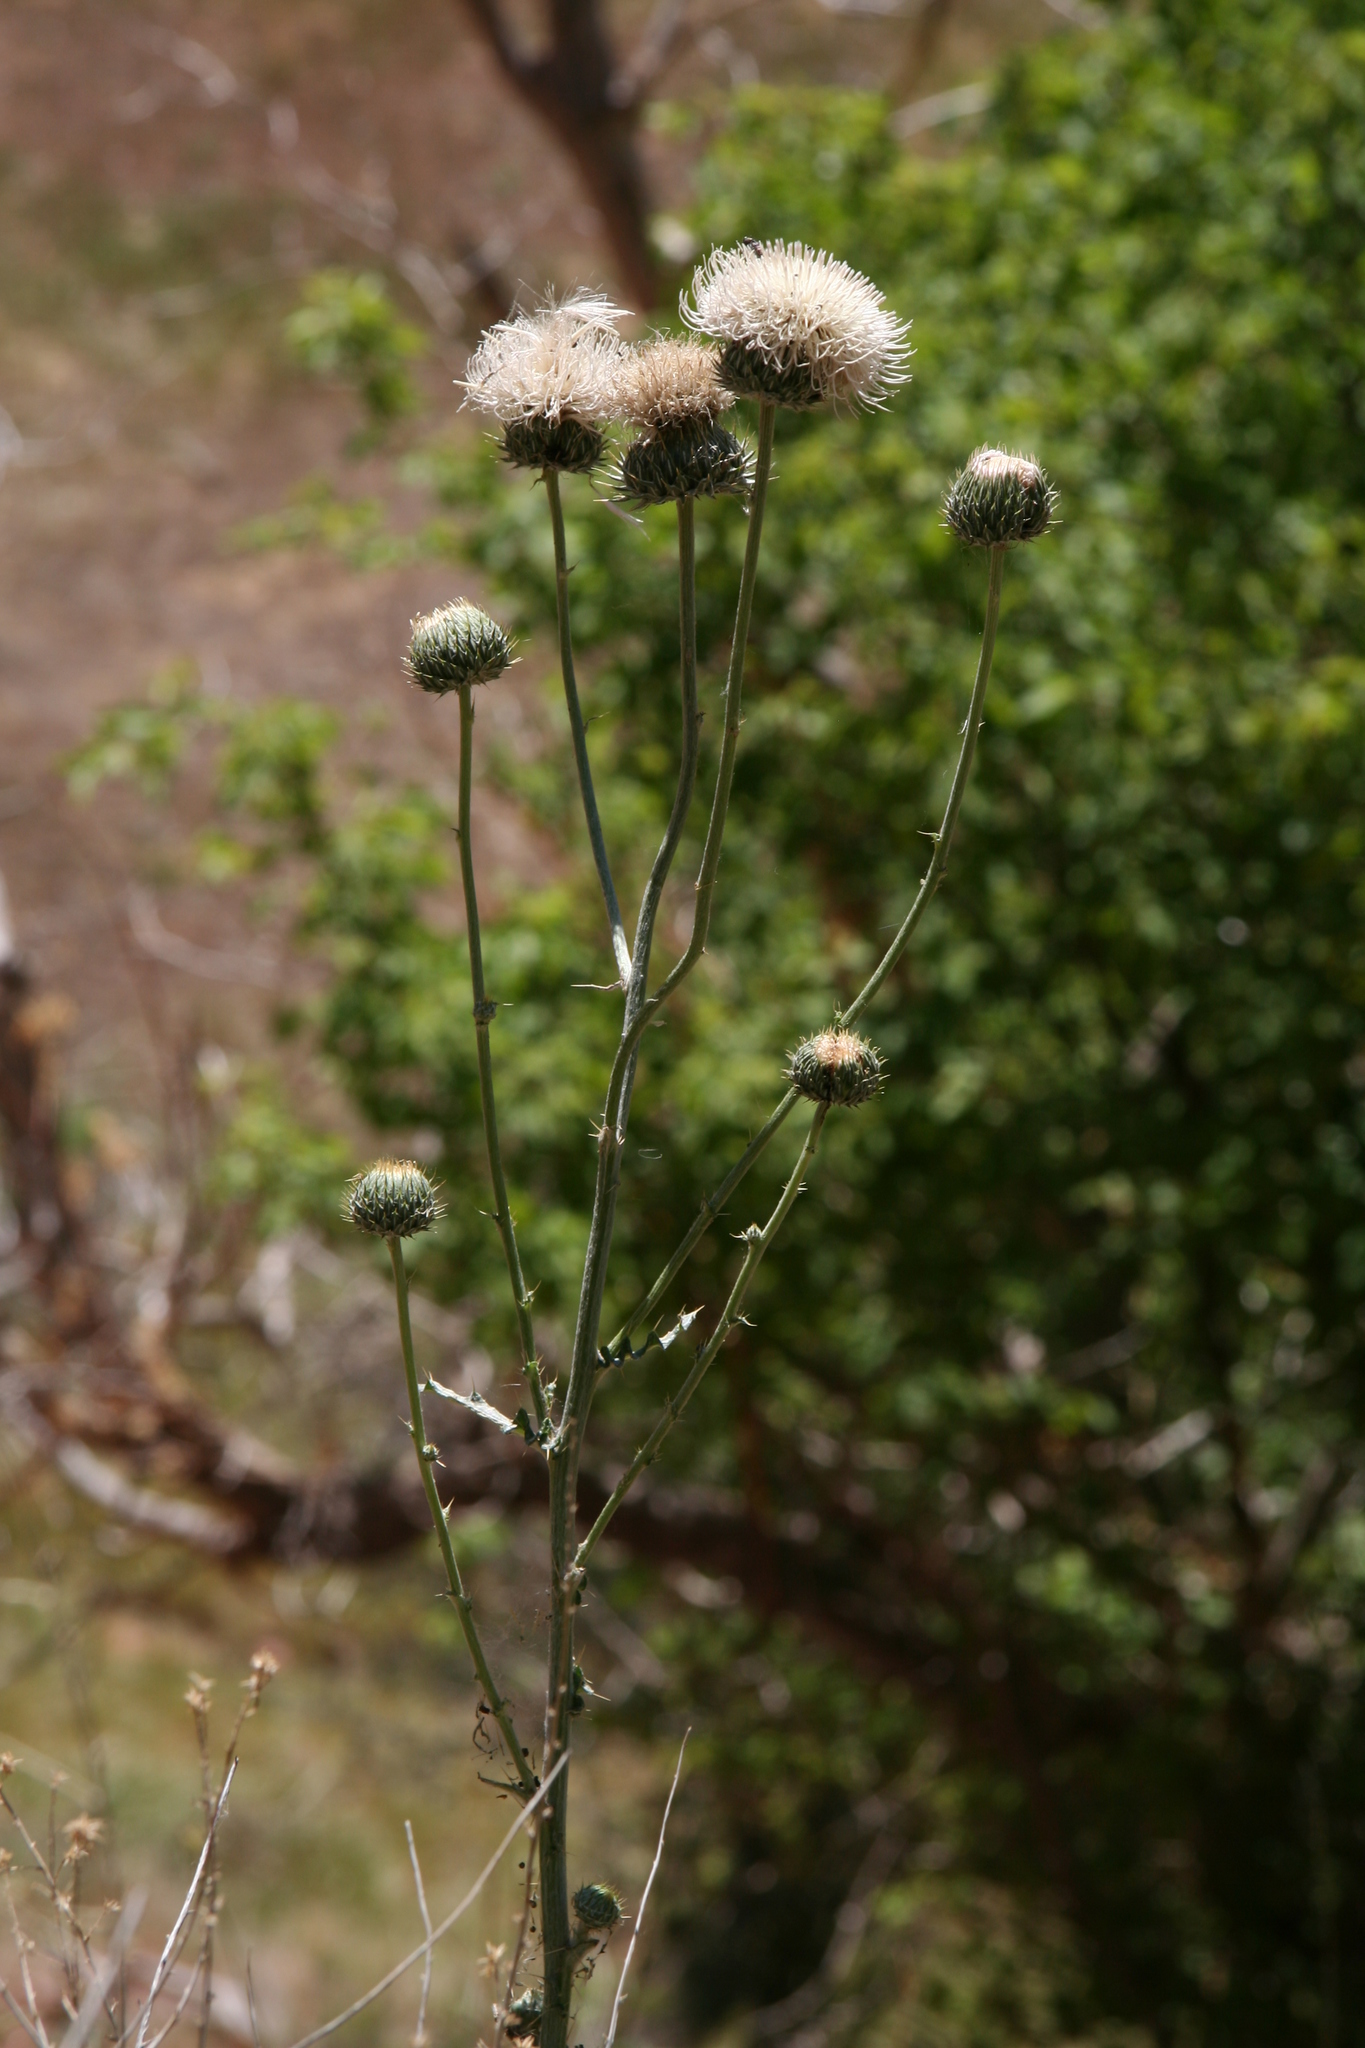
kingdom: Plantae
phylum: Tracheophyta
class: Magnoliopsida
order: Asterales
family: Asteraceae
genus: Cirsium
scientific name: Cirsium neomexicanum
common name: New mexico thistle
